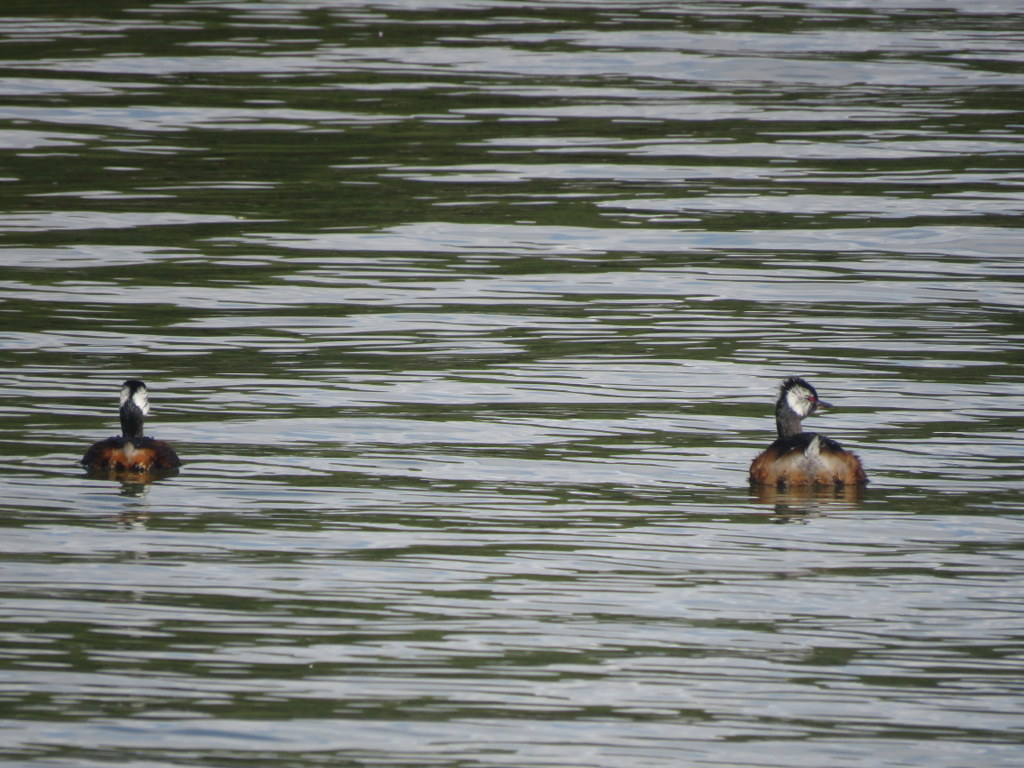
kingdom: Animalia
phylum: Chordata
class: Aves
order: Podicipediformes
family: Podicipedidae
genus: Rollandia
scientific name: Rollandia rolland
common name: White-tufted grebe
